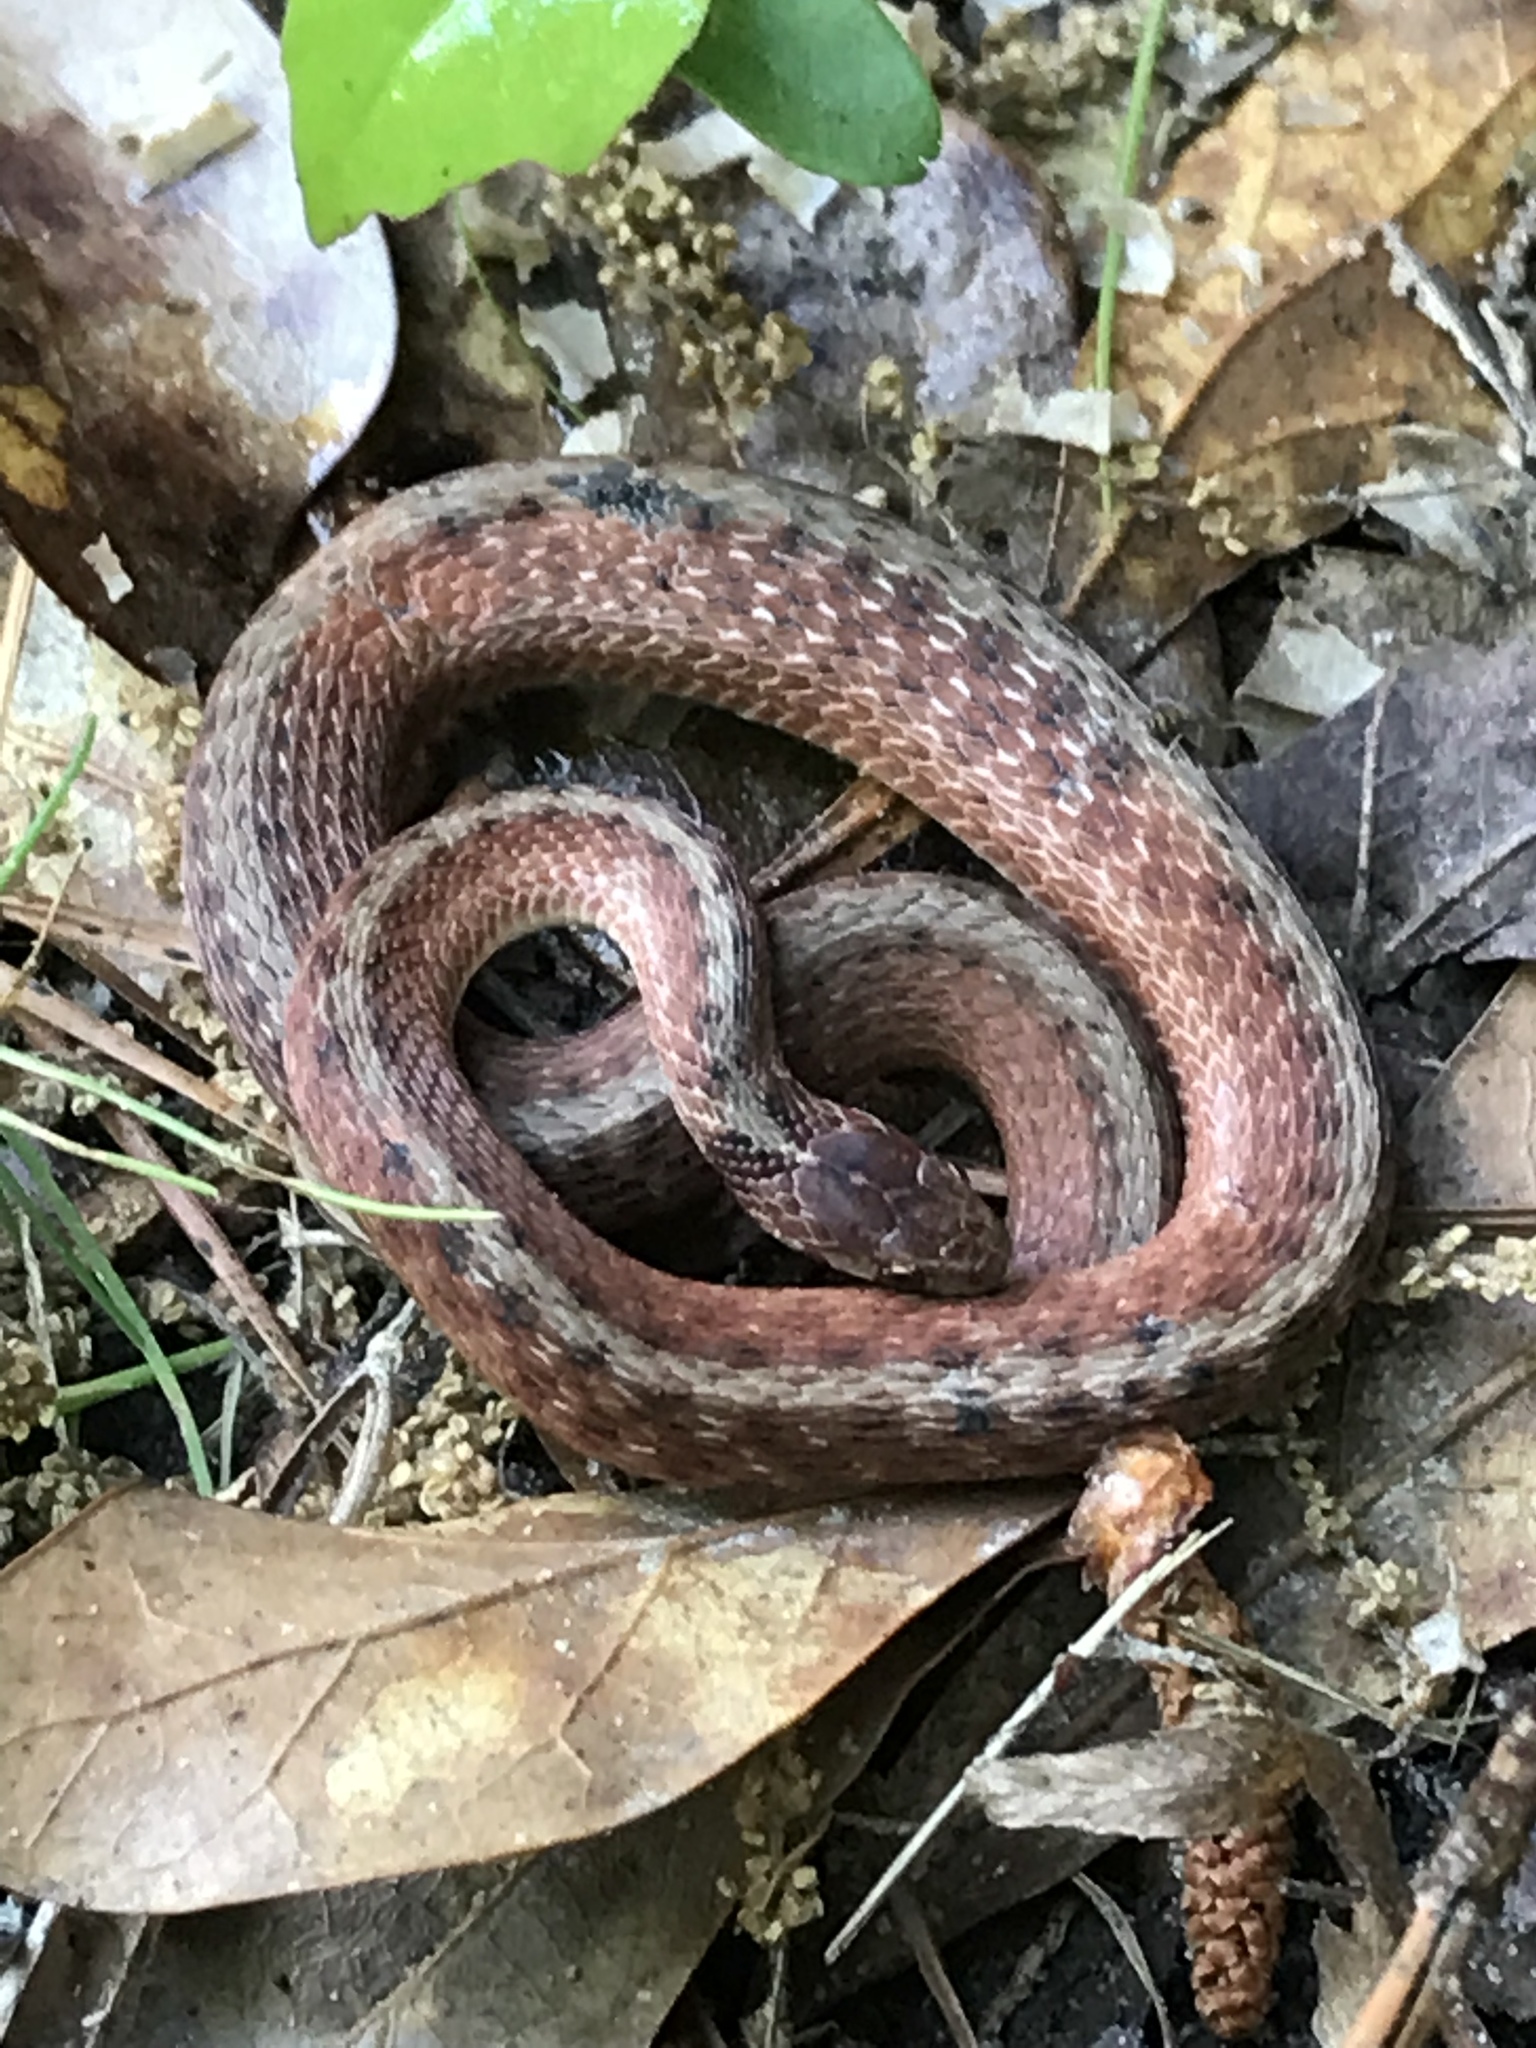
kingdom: Animalia
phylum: Chordata
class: Squamata
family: Colubridae
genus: Storeria
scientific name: Storeria dekayi
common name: (dekay’s) brown snake
